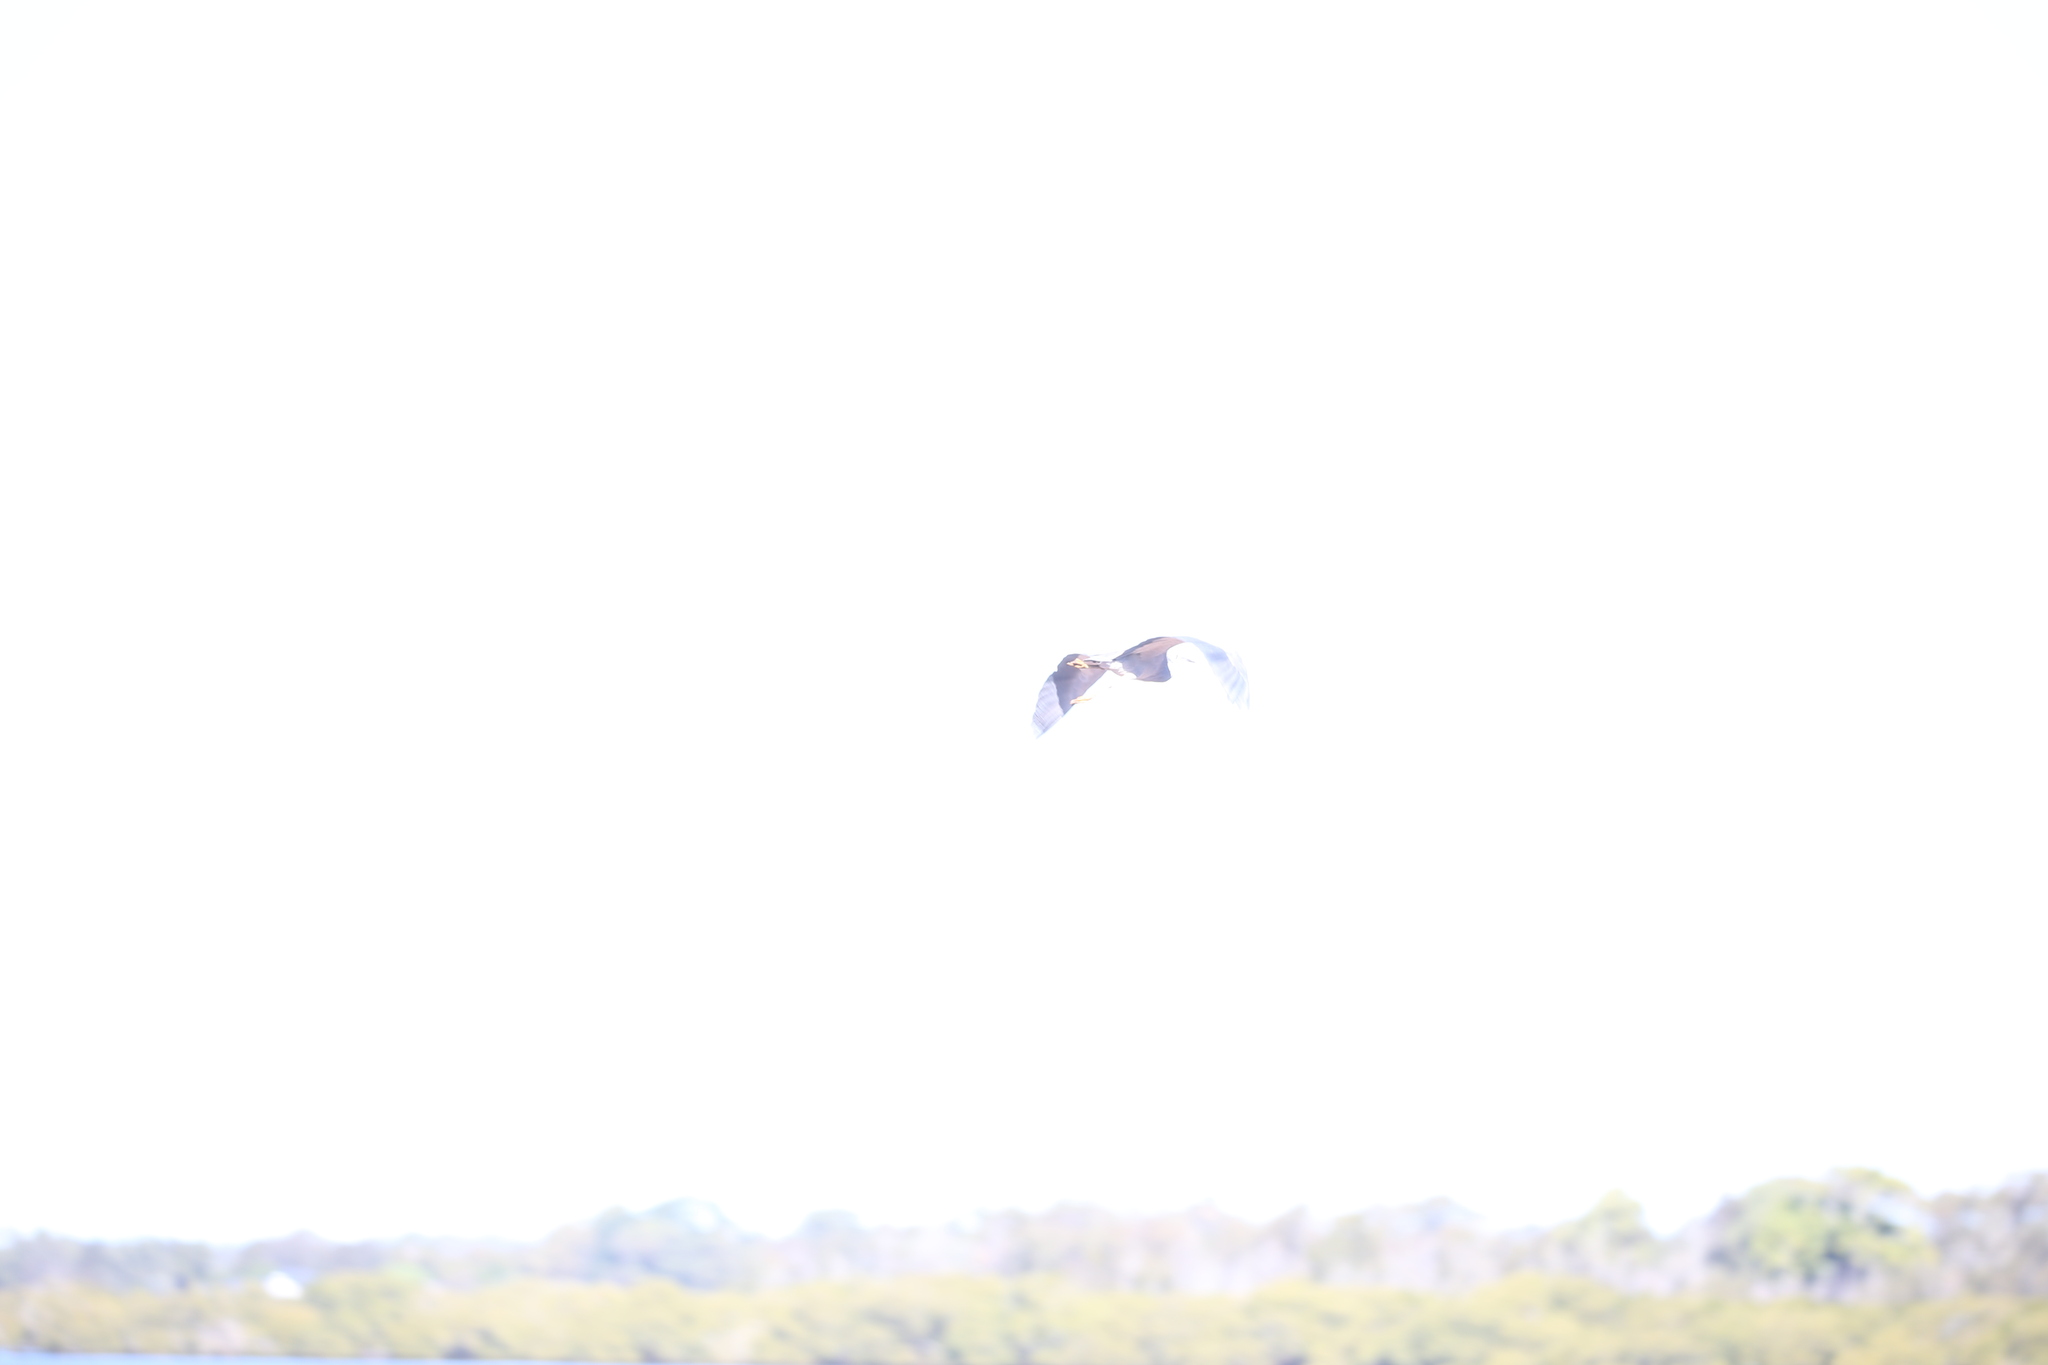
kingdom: Animalia
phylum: Chordata
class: Aves
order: Pelecaniformes
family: Ardeidae
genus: Egretta
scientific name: Egretta novaehollandiae
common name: White-faced heron
